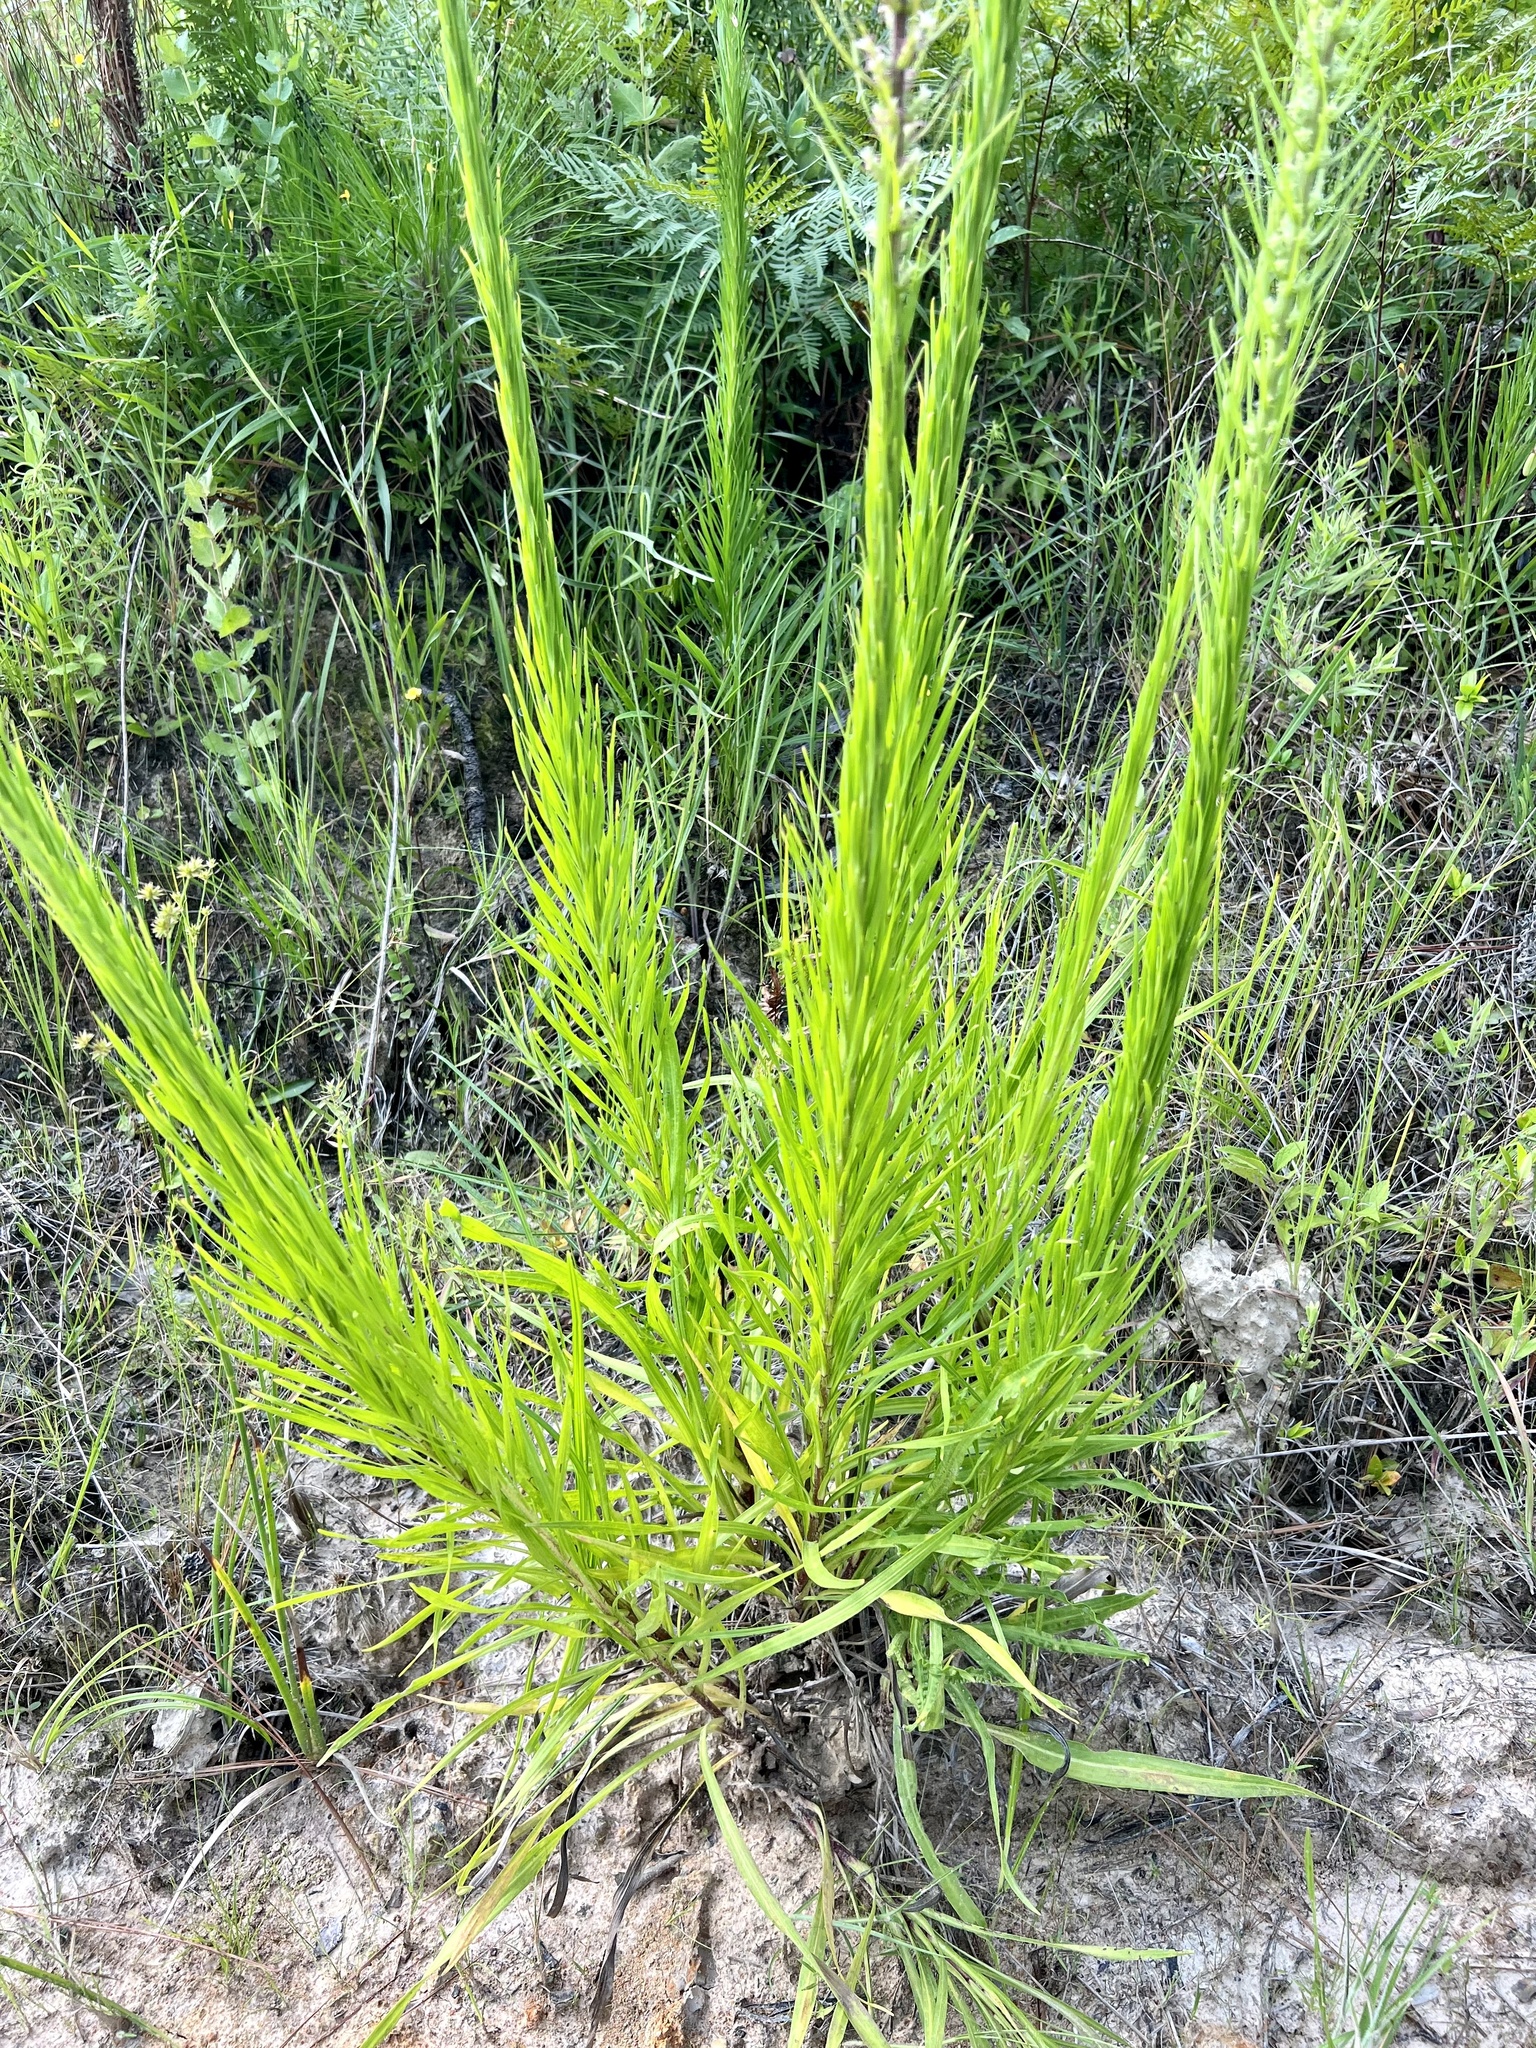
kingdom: Plantae
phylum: Tracheophyta
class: Magnoliopsida
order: Asterales
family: Asteraceae
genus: Liatris
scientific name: Liatris pycnostachya
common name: Cattail gayfeather
